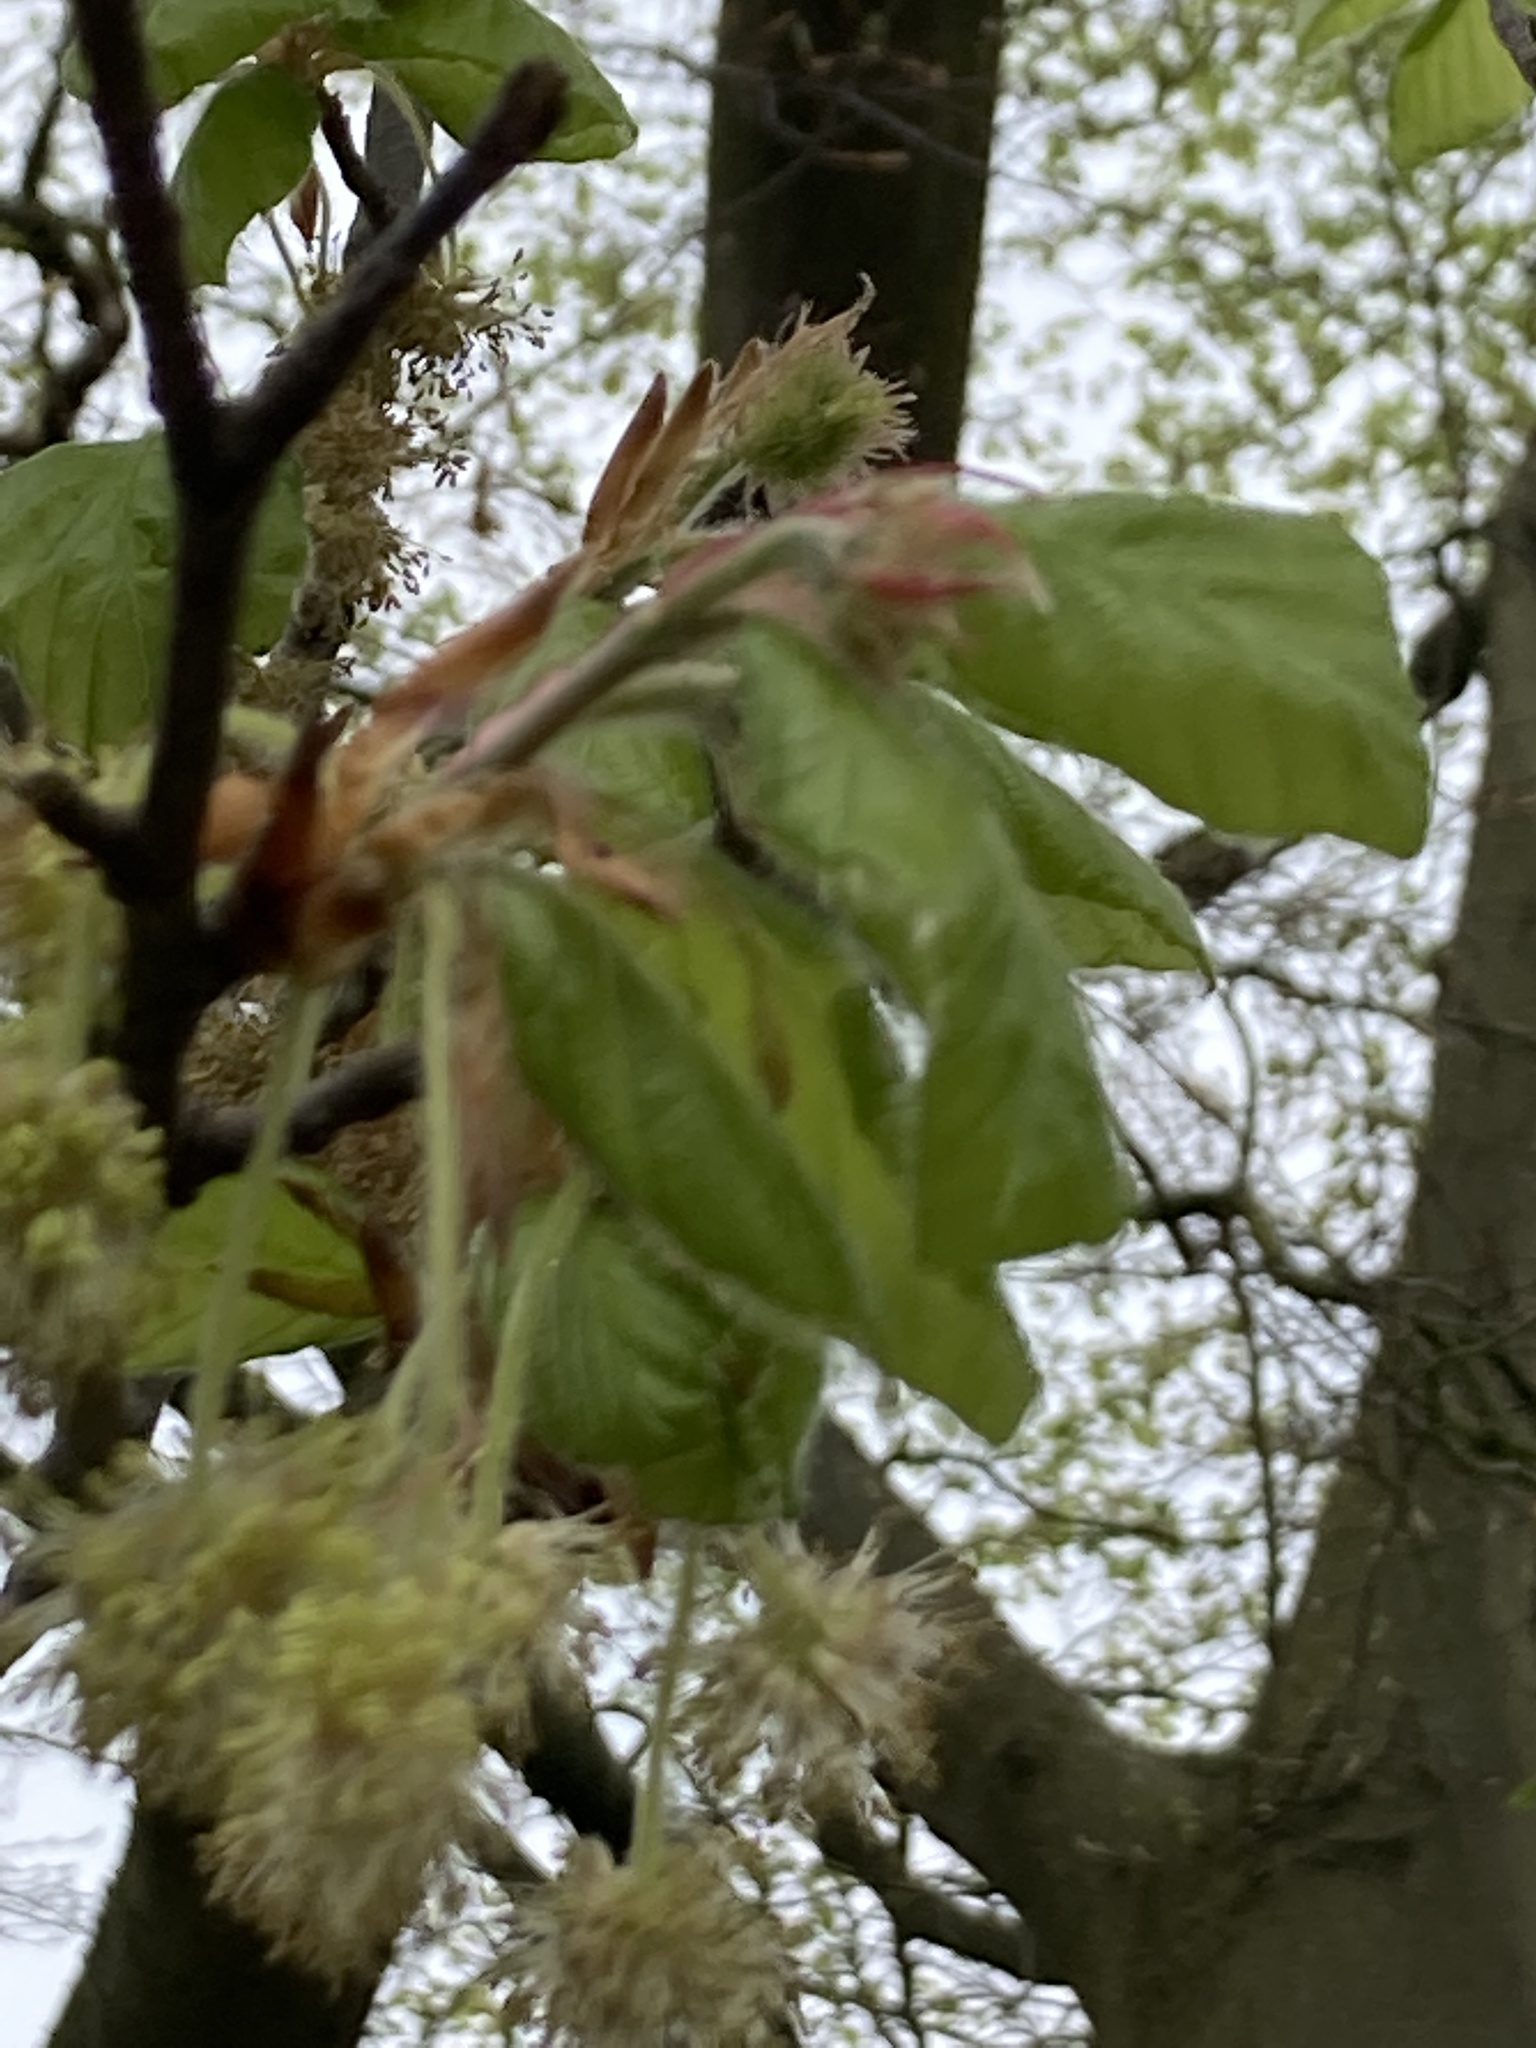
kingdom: Plantae
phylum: Tracheophyta
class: Magnoliopsida
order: Fagales
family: Fagaceae
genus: Fagus
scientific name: Fagus sylvatica
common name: Beech
